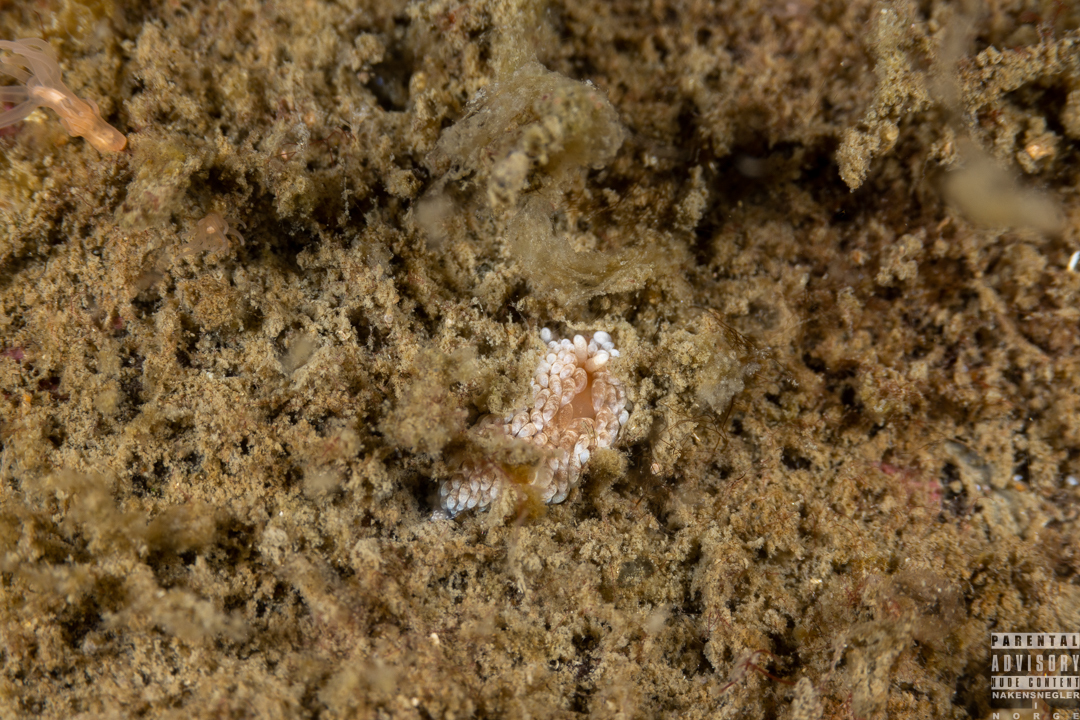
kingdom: Animalia
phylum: Mollusca
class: Gastropoda
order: Nudibranchia
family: Aeolidiidae
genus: Aeolidiella
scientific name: Aeolidiella glauca
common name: Orange-brown aeolid
